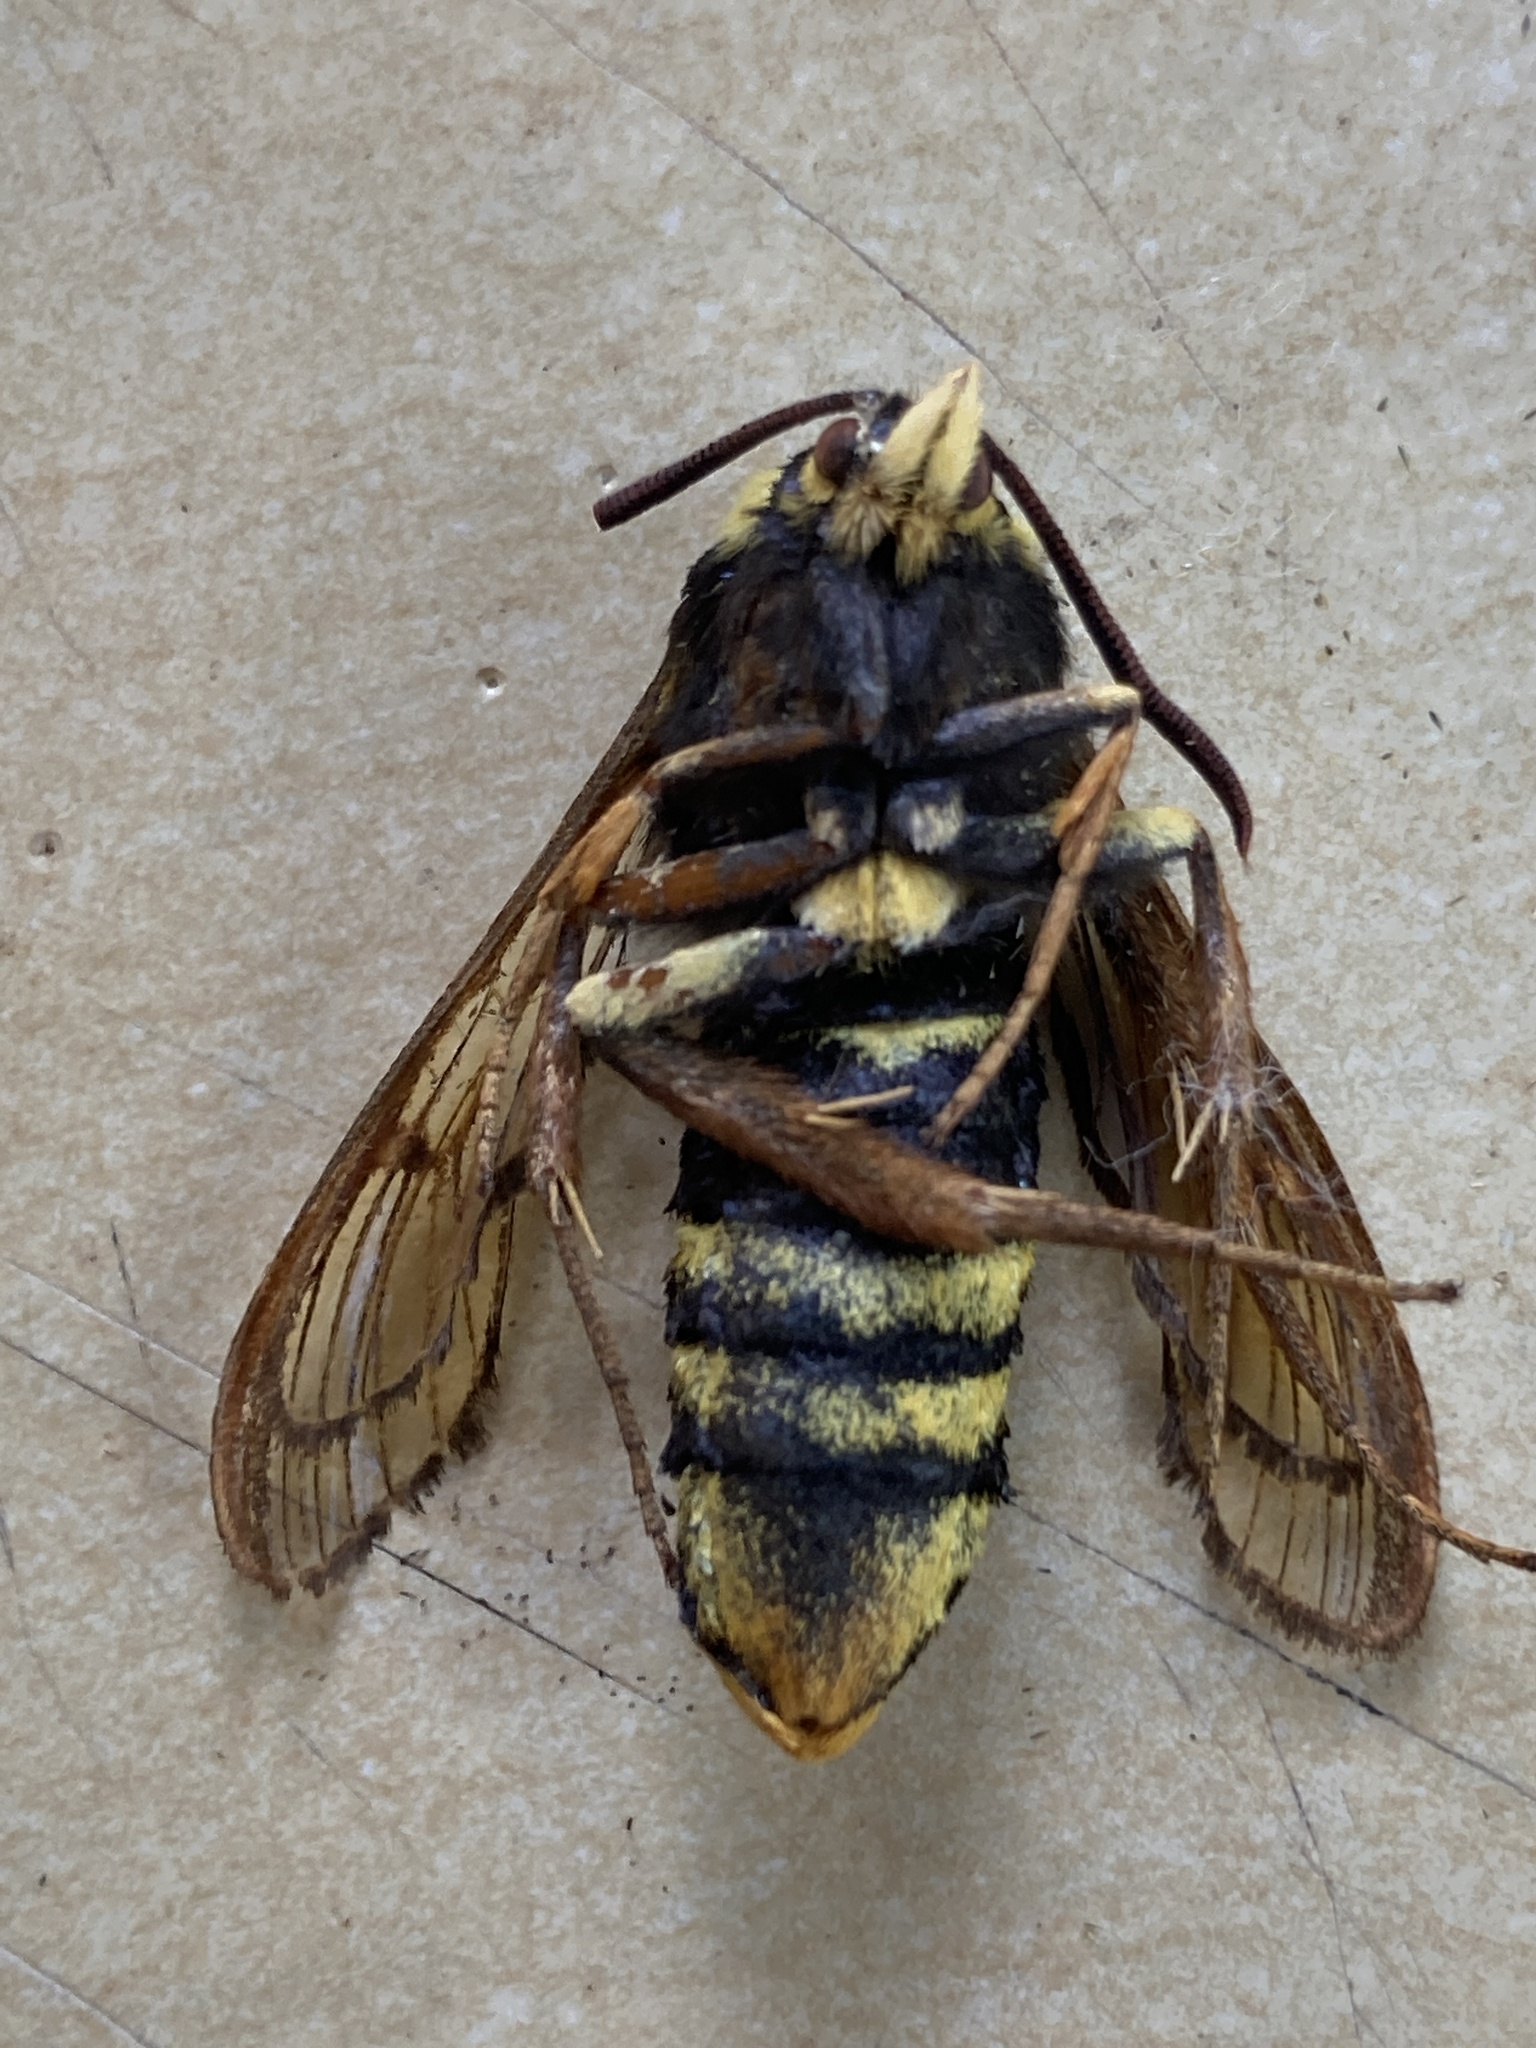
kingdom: Animalia
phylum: Arthropoda
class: Insecta
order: Lepidoptera
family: Sesiidae
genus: Sesia
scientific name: Sesia apiformis
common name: Hornet moth
